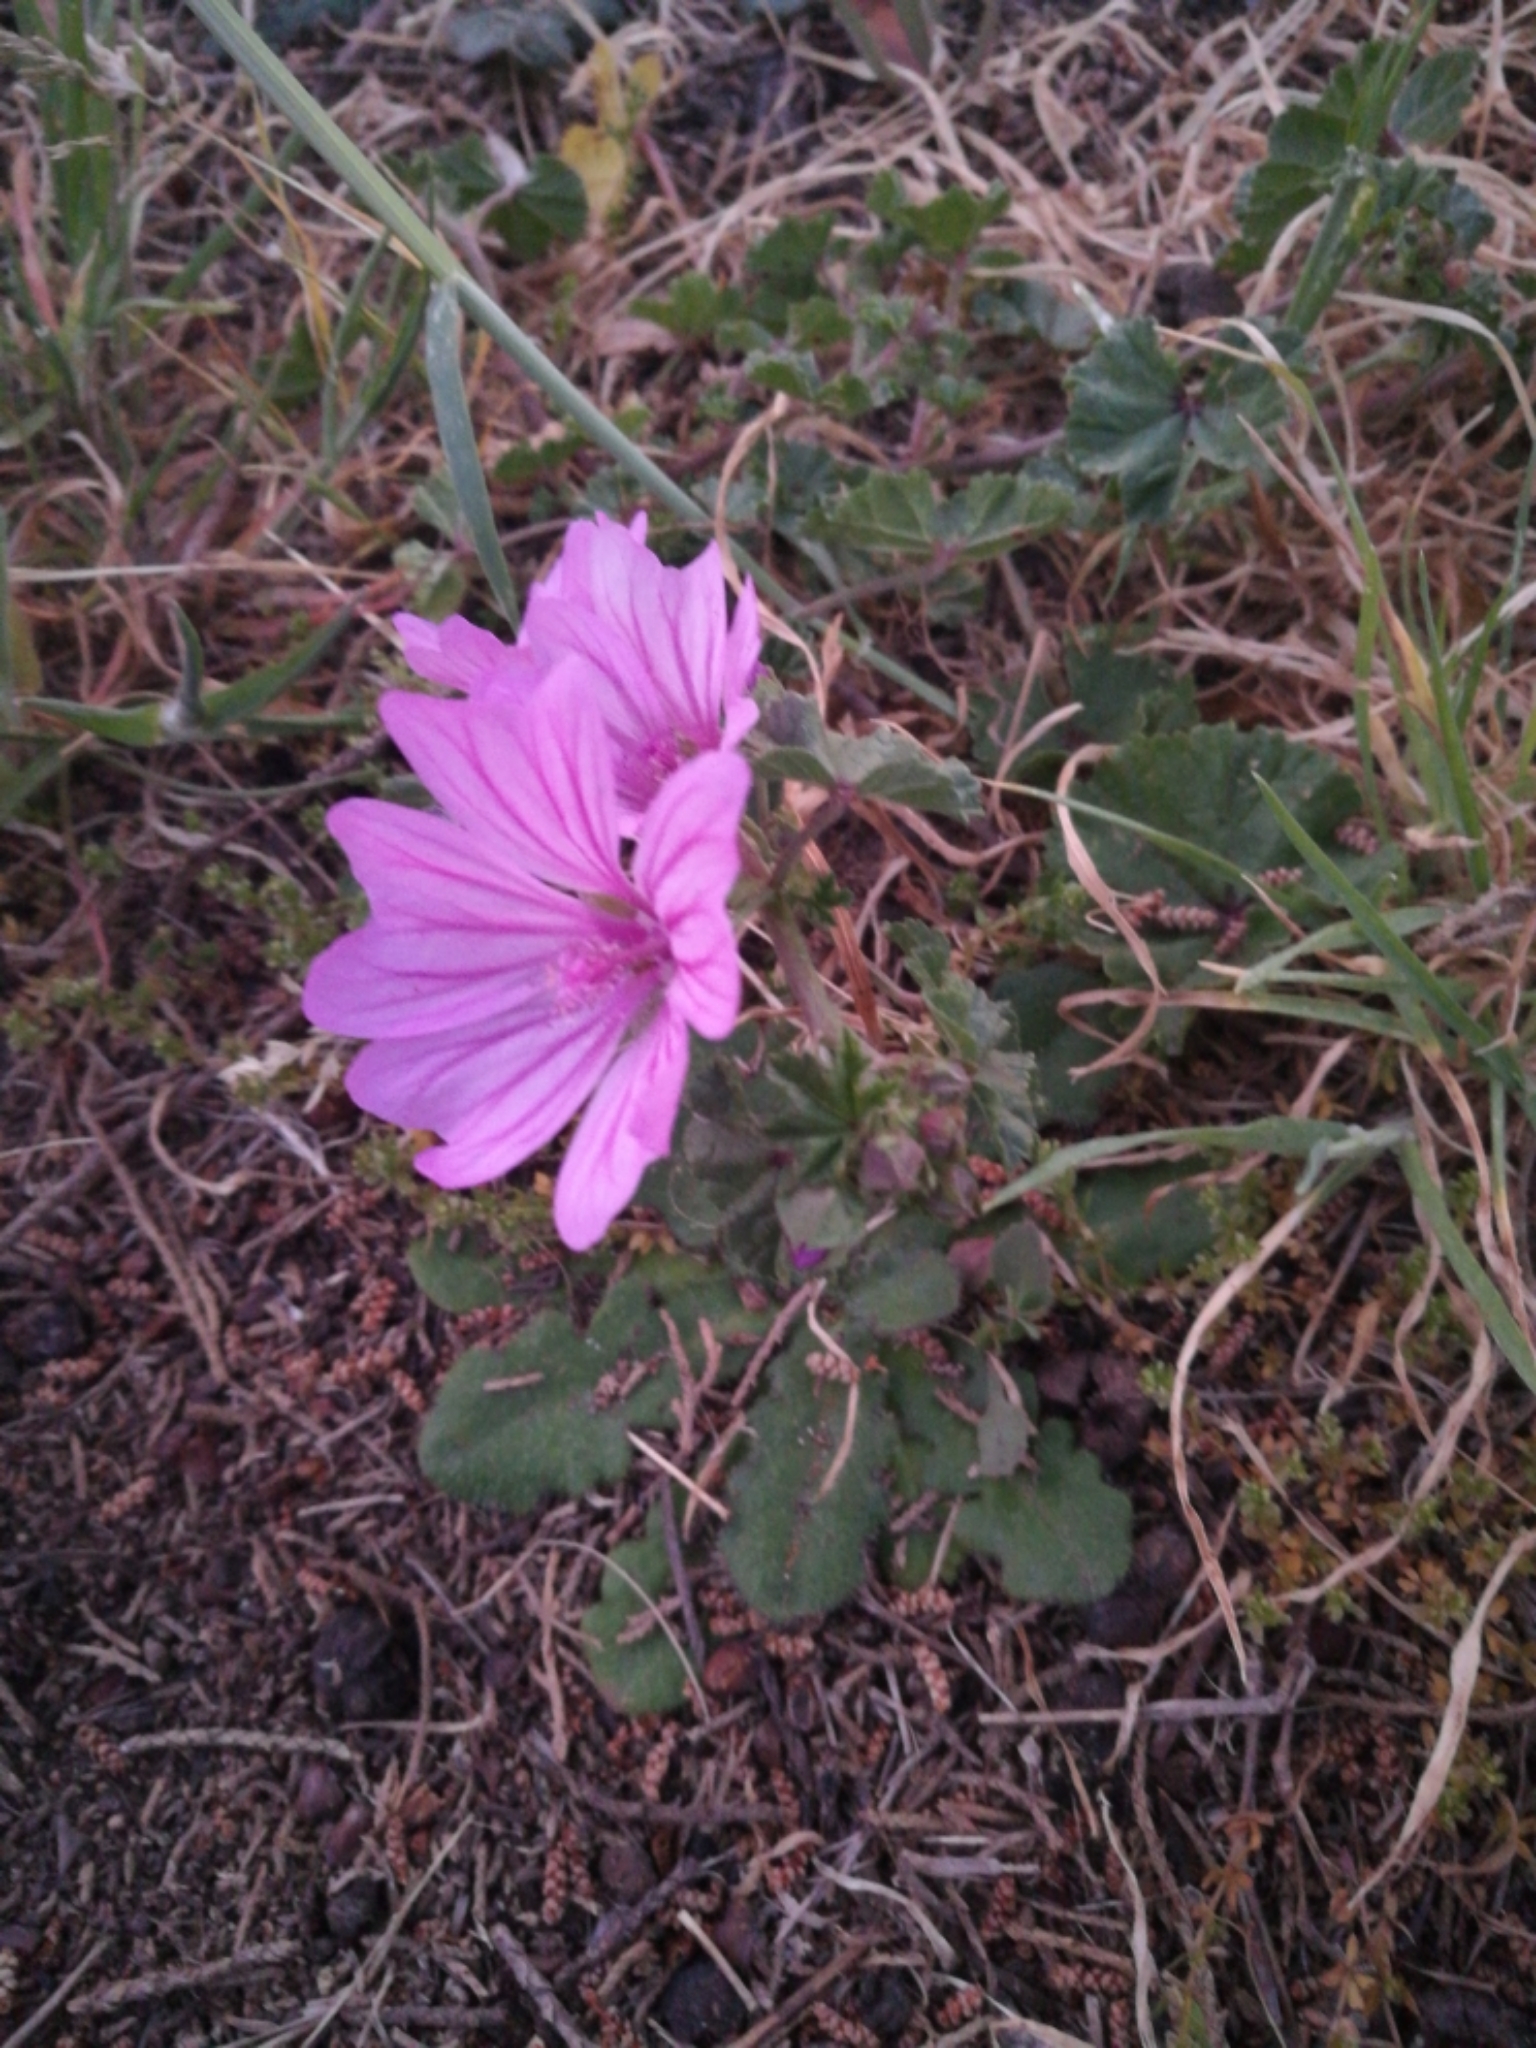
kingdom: Plantae
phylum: Tracheophyta
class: Magnoliopsida
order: Malvales
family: Malvaceae
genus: Malva
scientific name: Malva sylvestris
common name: Common mallow
